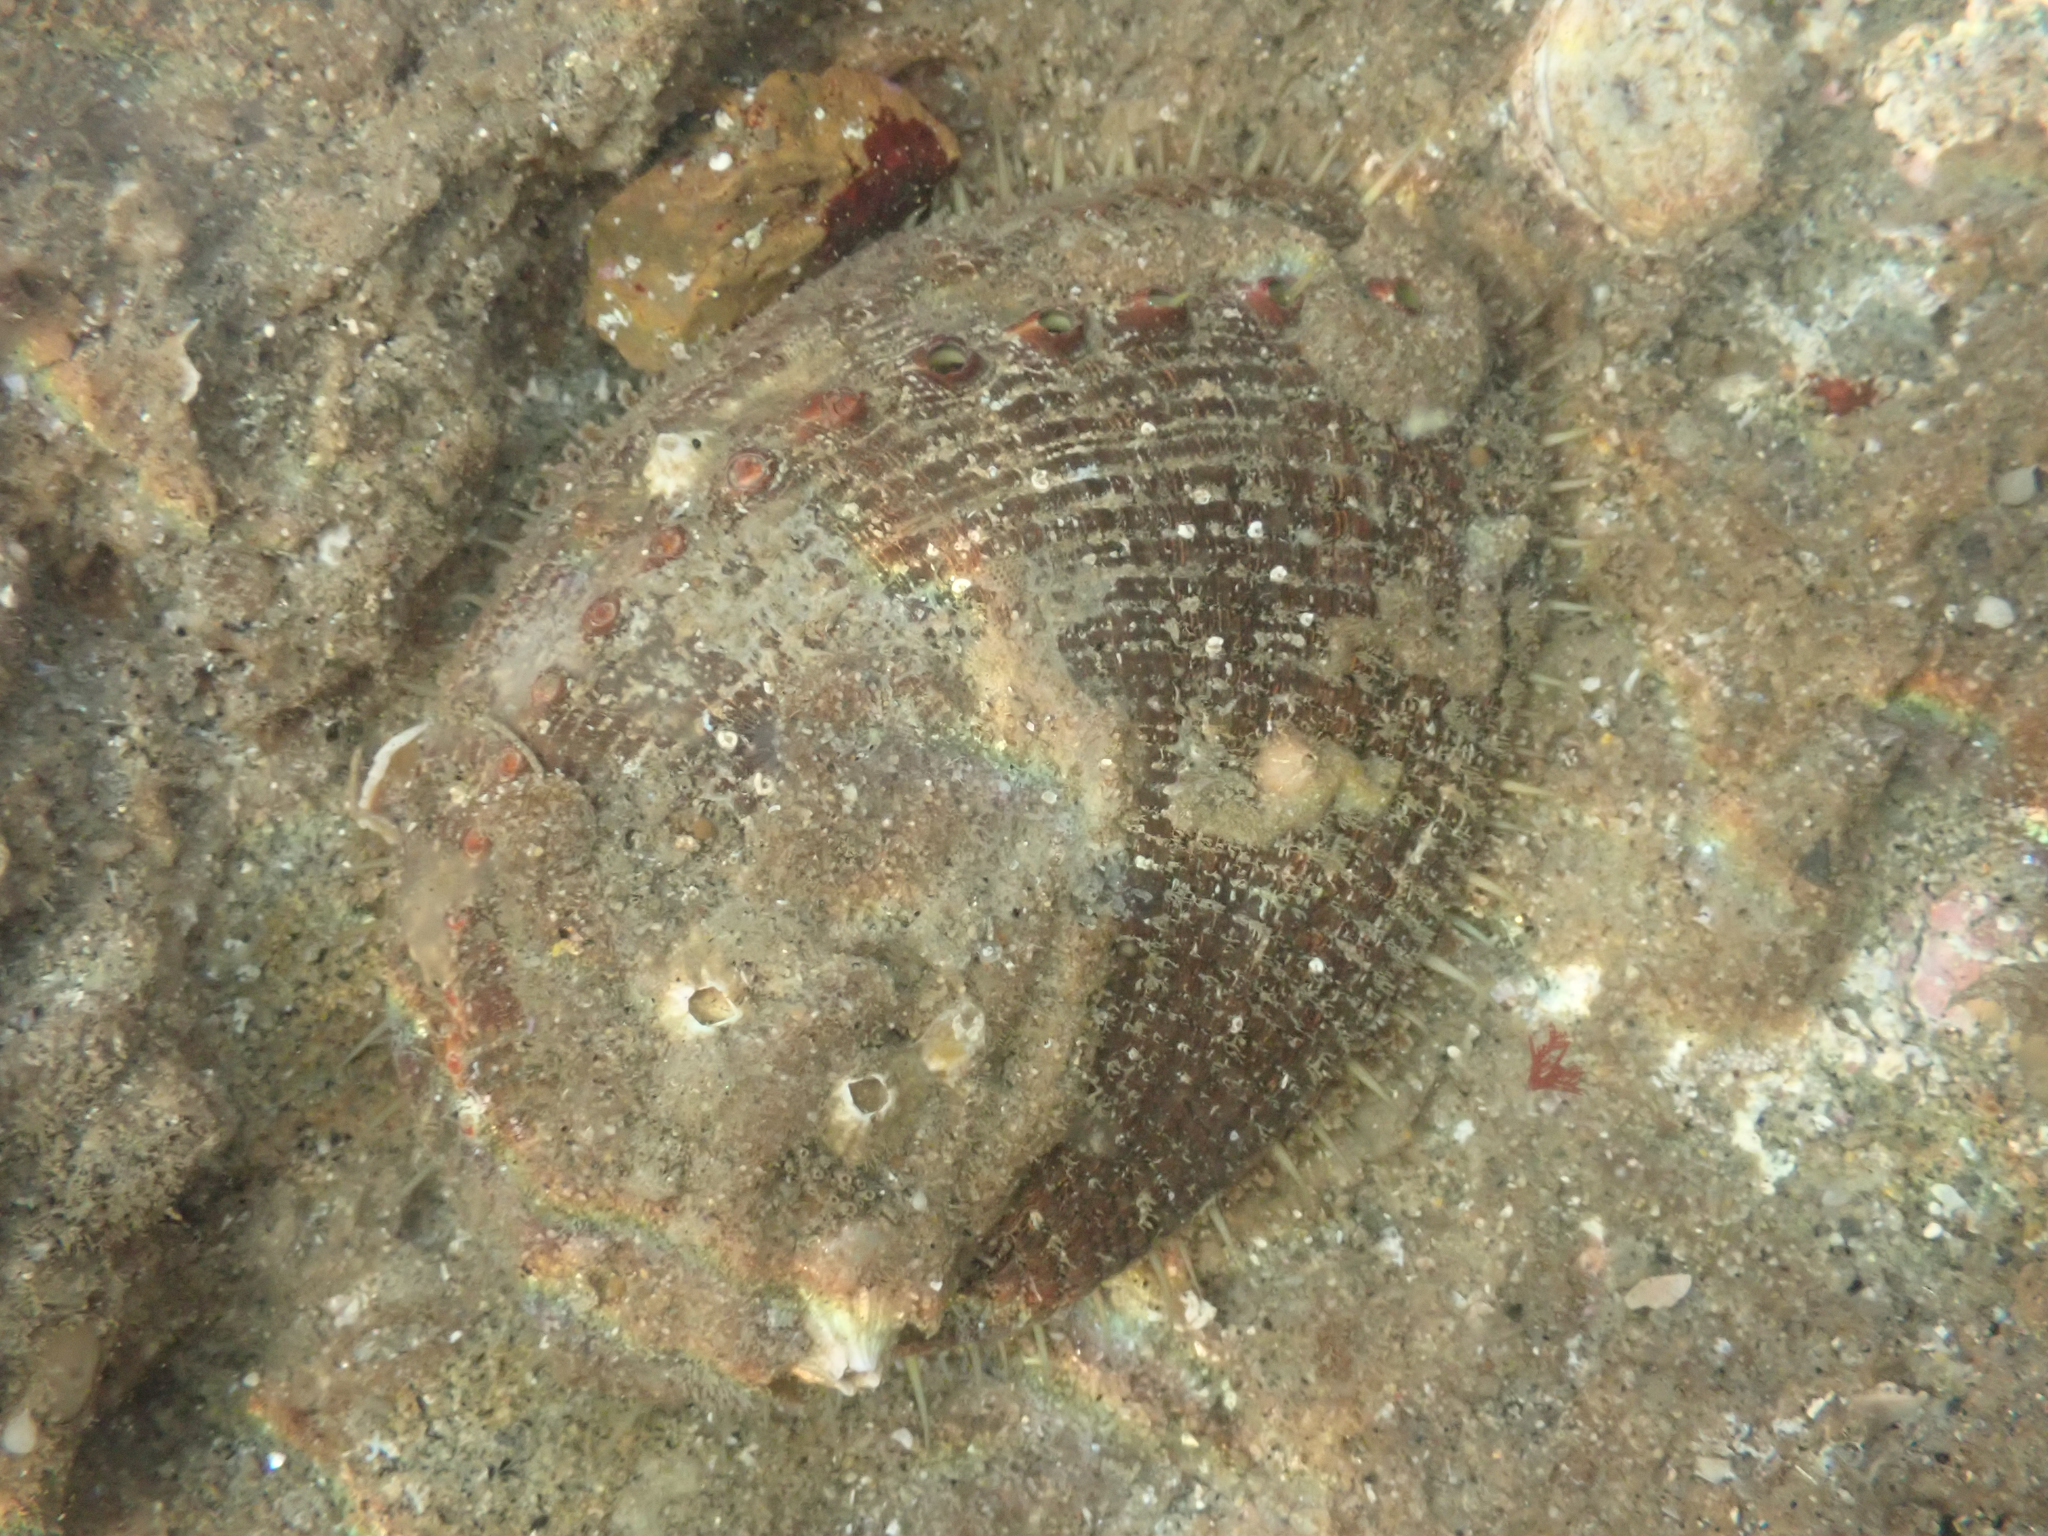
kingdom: Animalia
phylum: Mollusca
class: Gastropoda
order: Lepetellida
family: Haliotidae
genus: Haliotis
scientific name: Haliotis fulgens
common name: Green abalone
